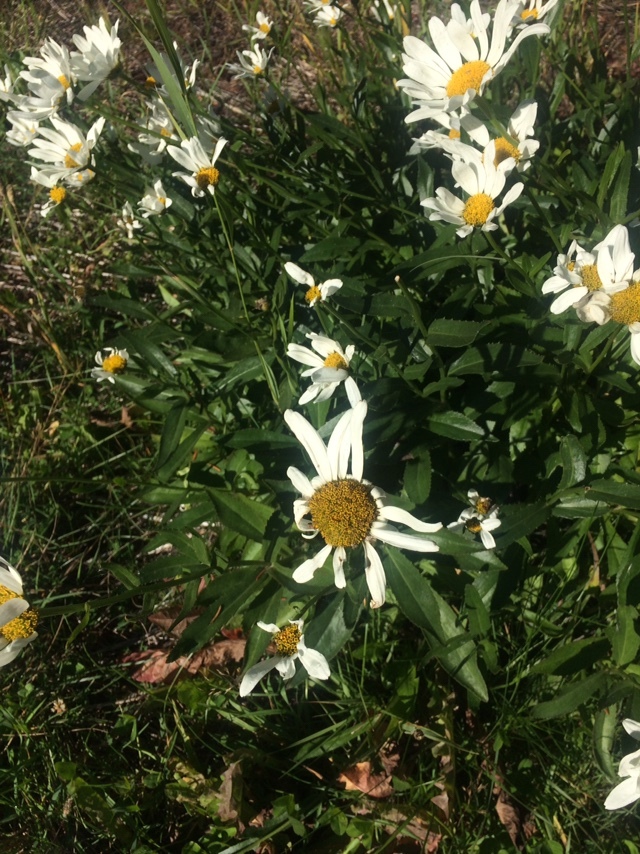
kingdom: Plantae
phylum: Tracheophyta
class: Magnoliopsida
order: Asterales
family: Asteraceae
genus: Leucanthemum
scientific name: Leucanthemum maximum
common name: Max chrysanthemum
